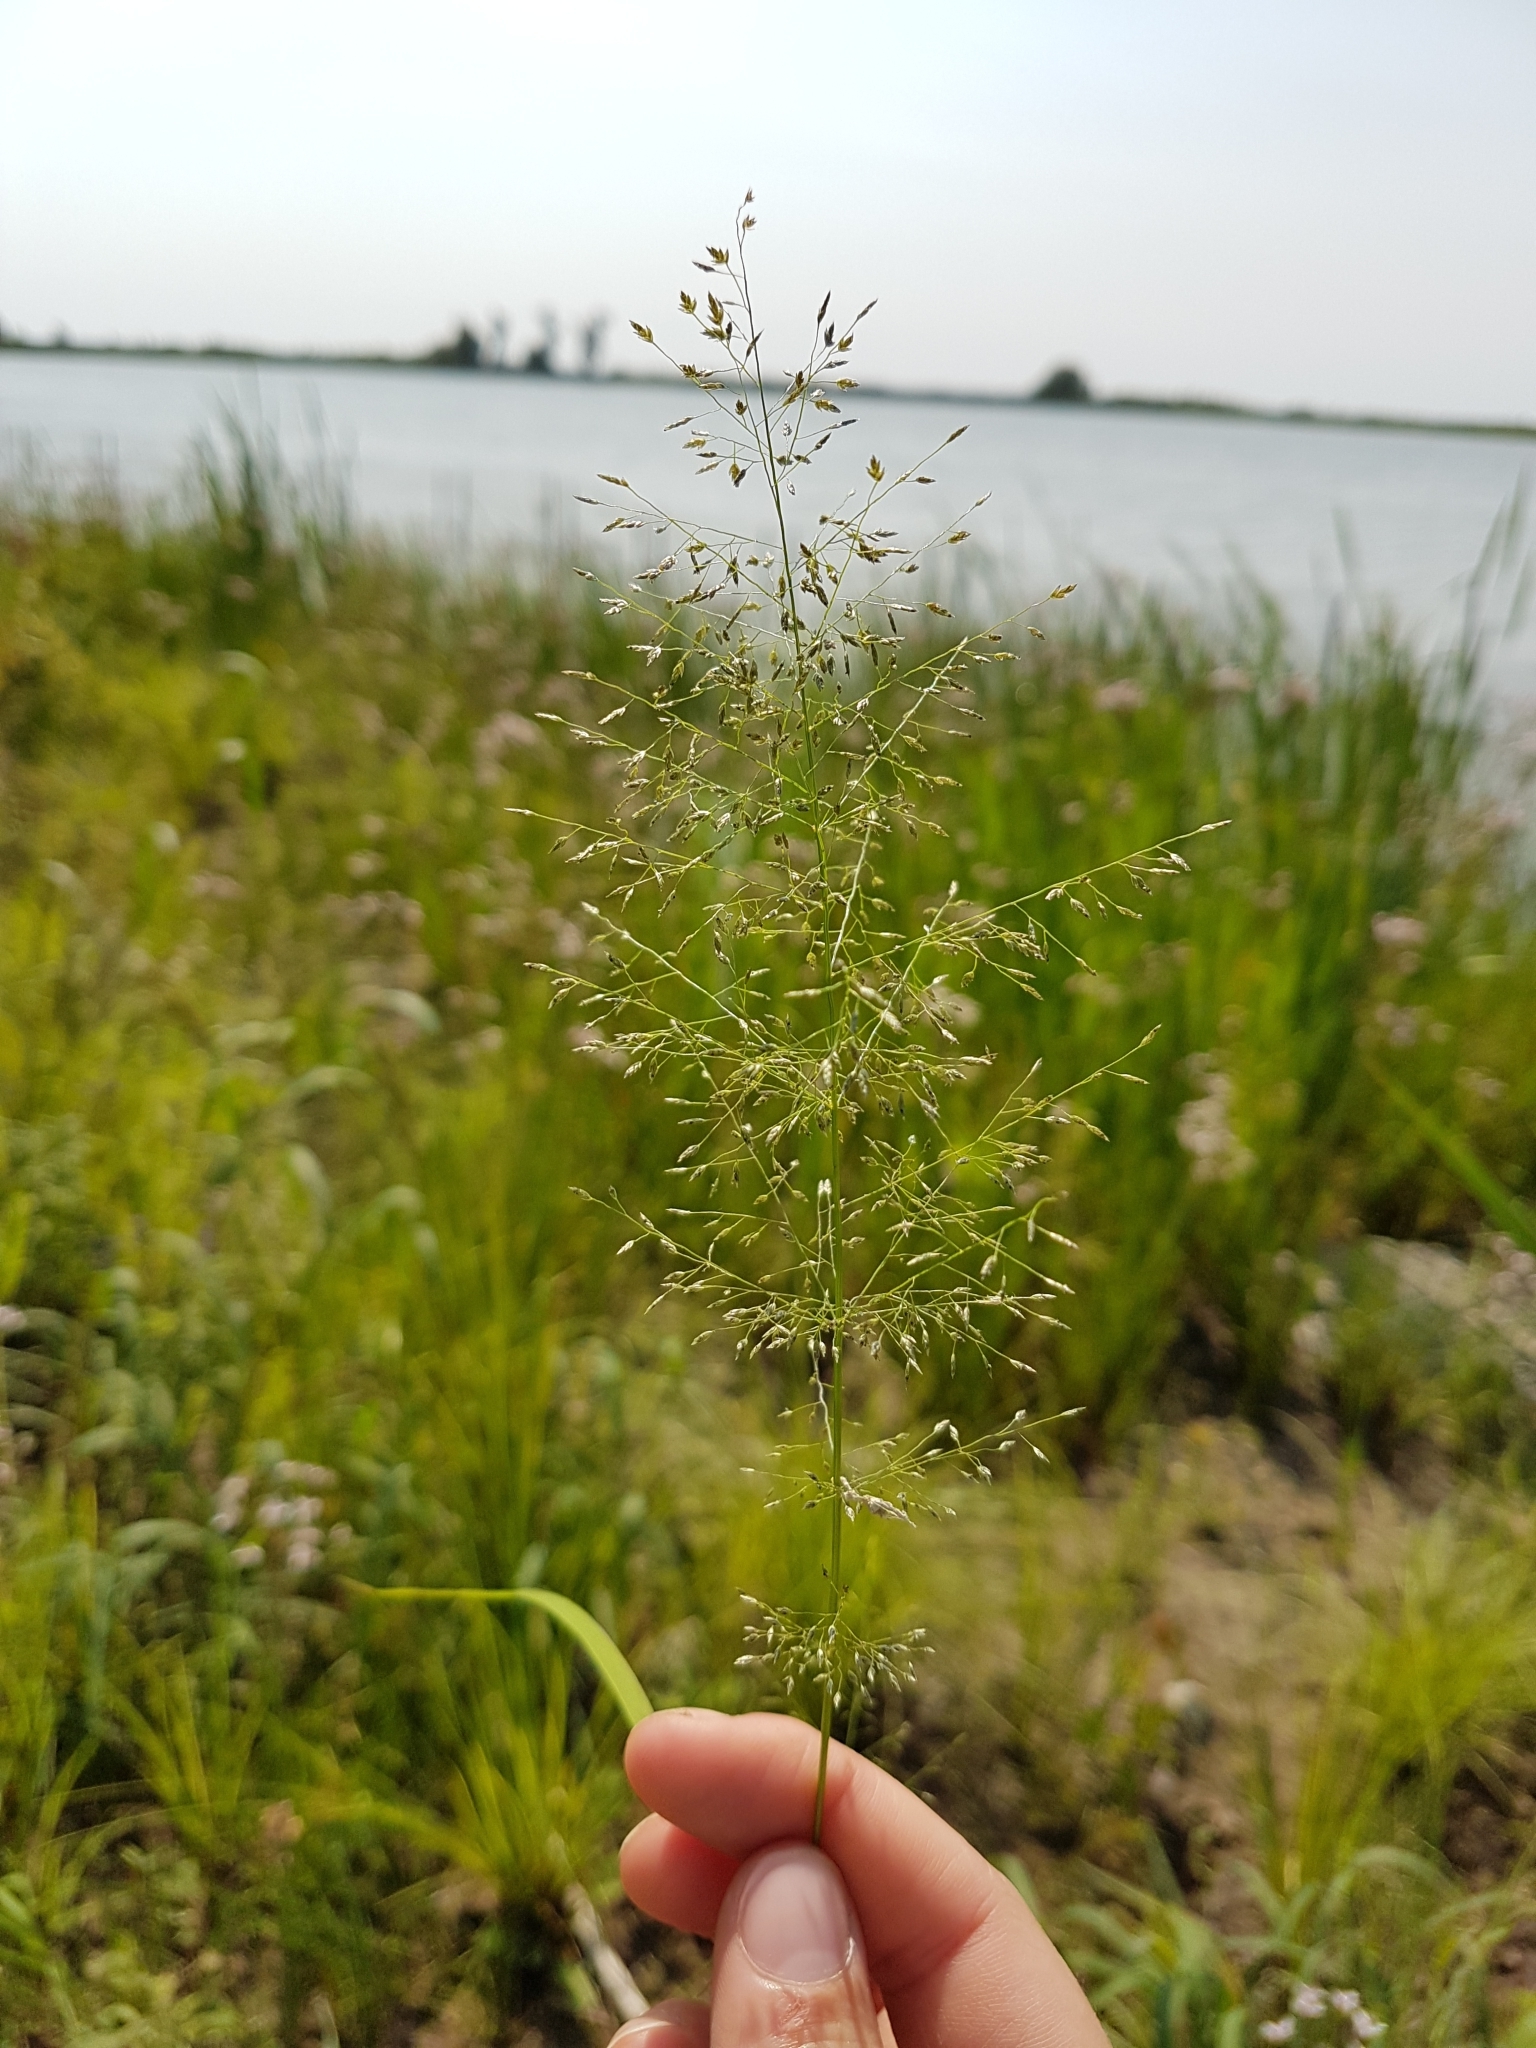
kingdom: Plantae
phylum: Tracheophyta
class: Liliopsida
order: Poales
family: Poaceae
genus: Eragrostis
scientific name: Eragrostis pectinacea
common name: Tufted lovegrass
